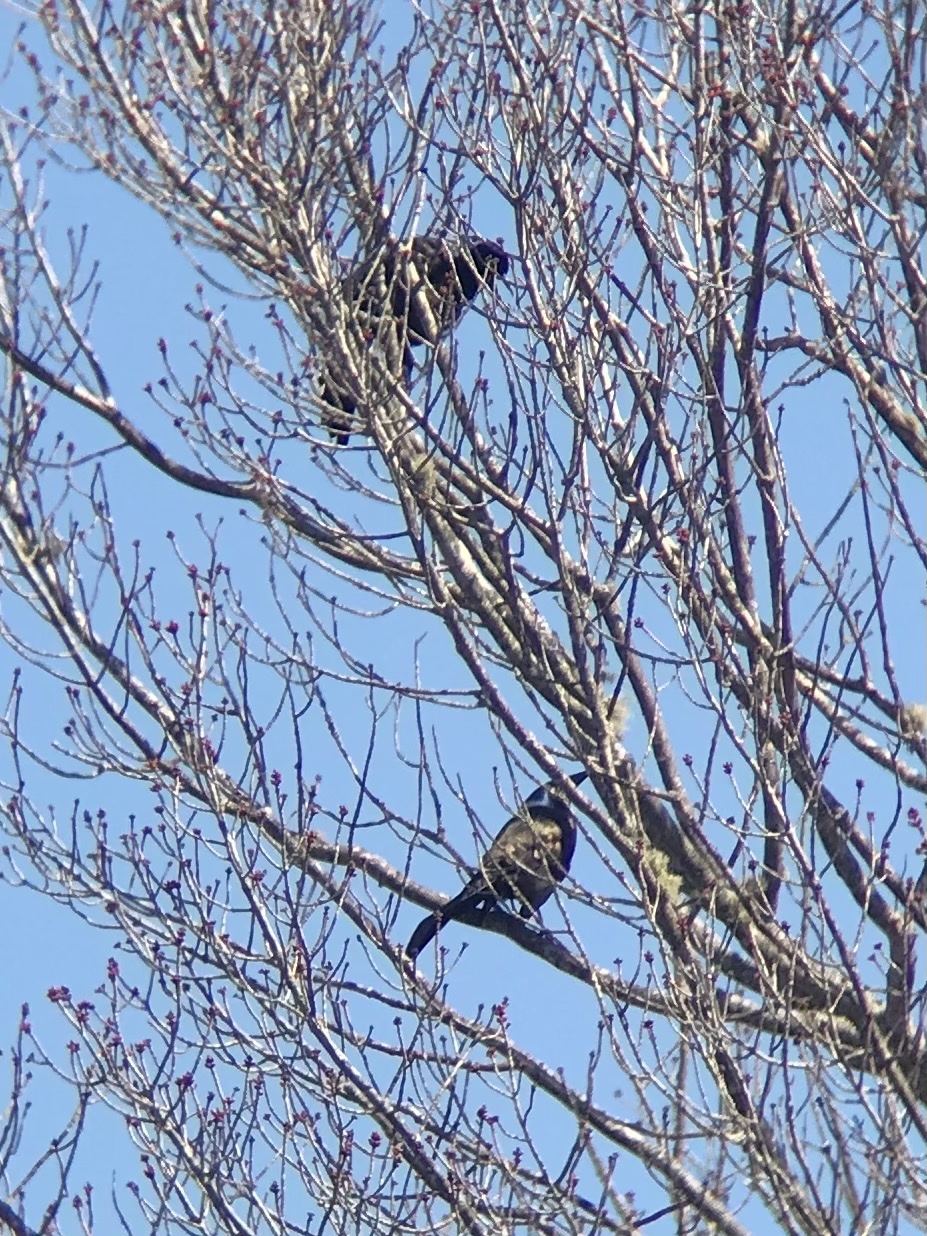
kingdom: Animalia
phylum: Chordata
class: Aves
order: Passeriformes
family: Icteridae
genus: Quiscalus
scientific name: Quiscalus quiscula
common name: Common grackle
